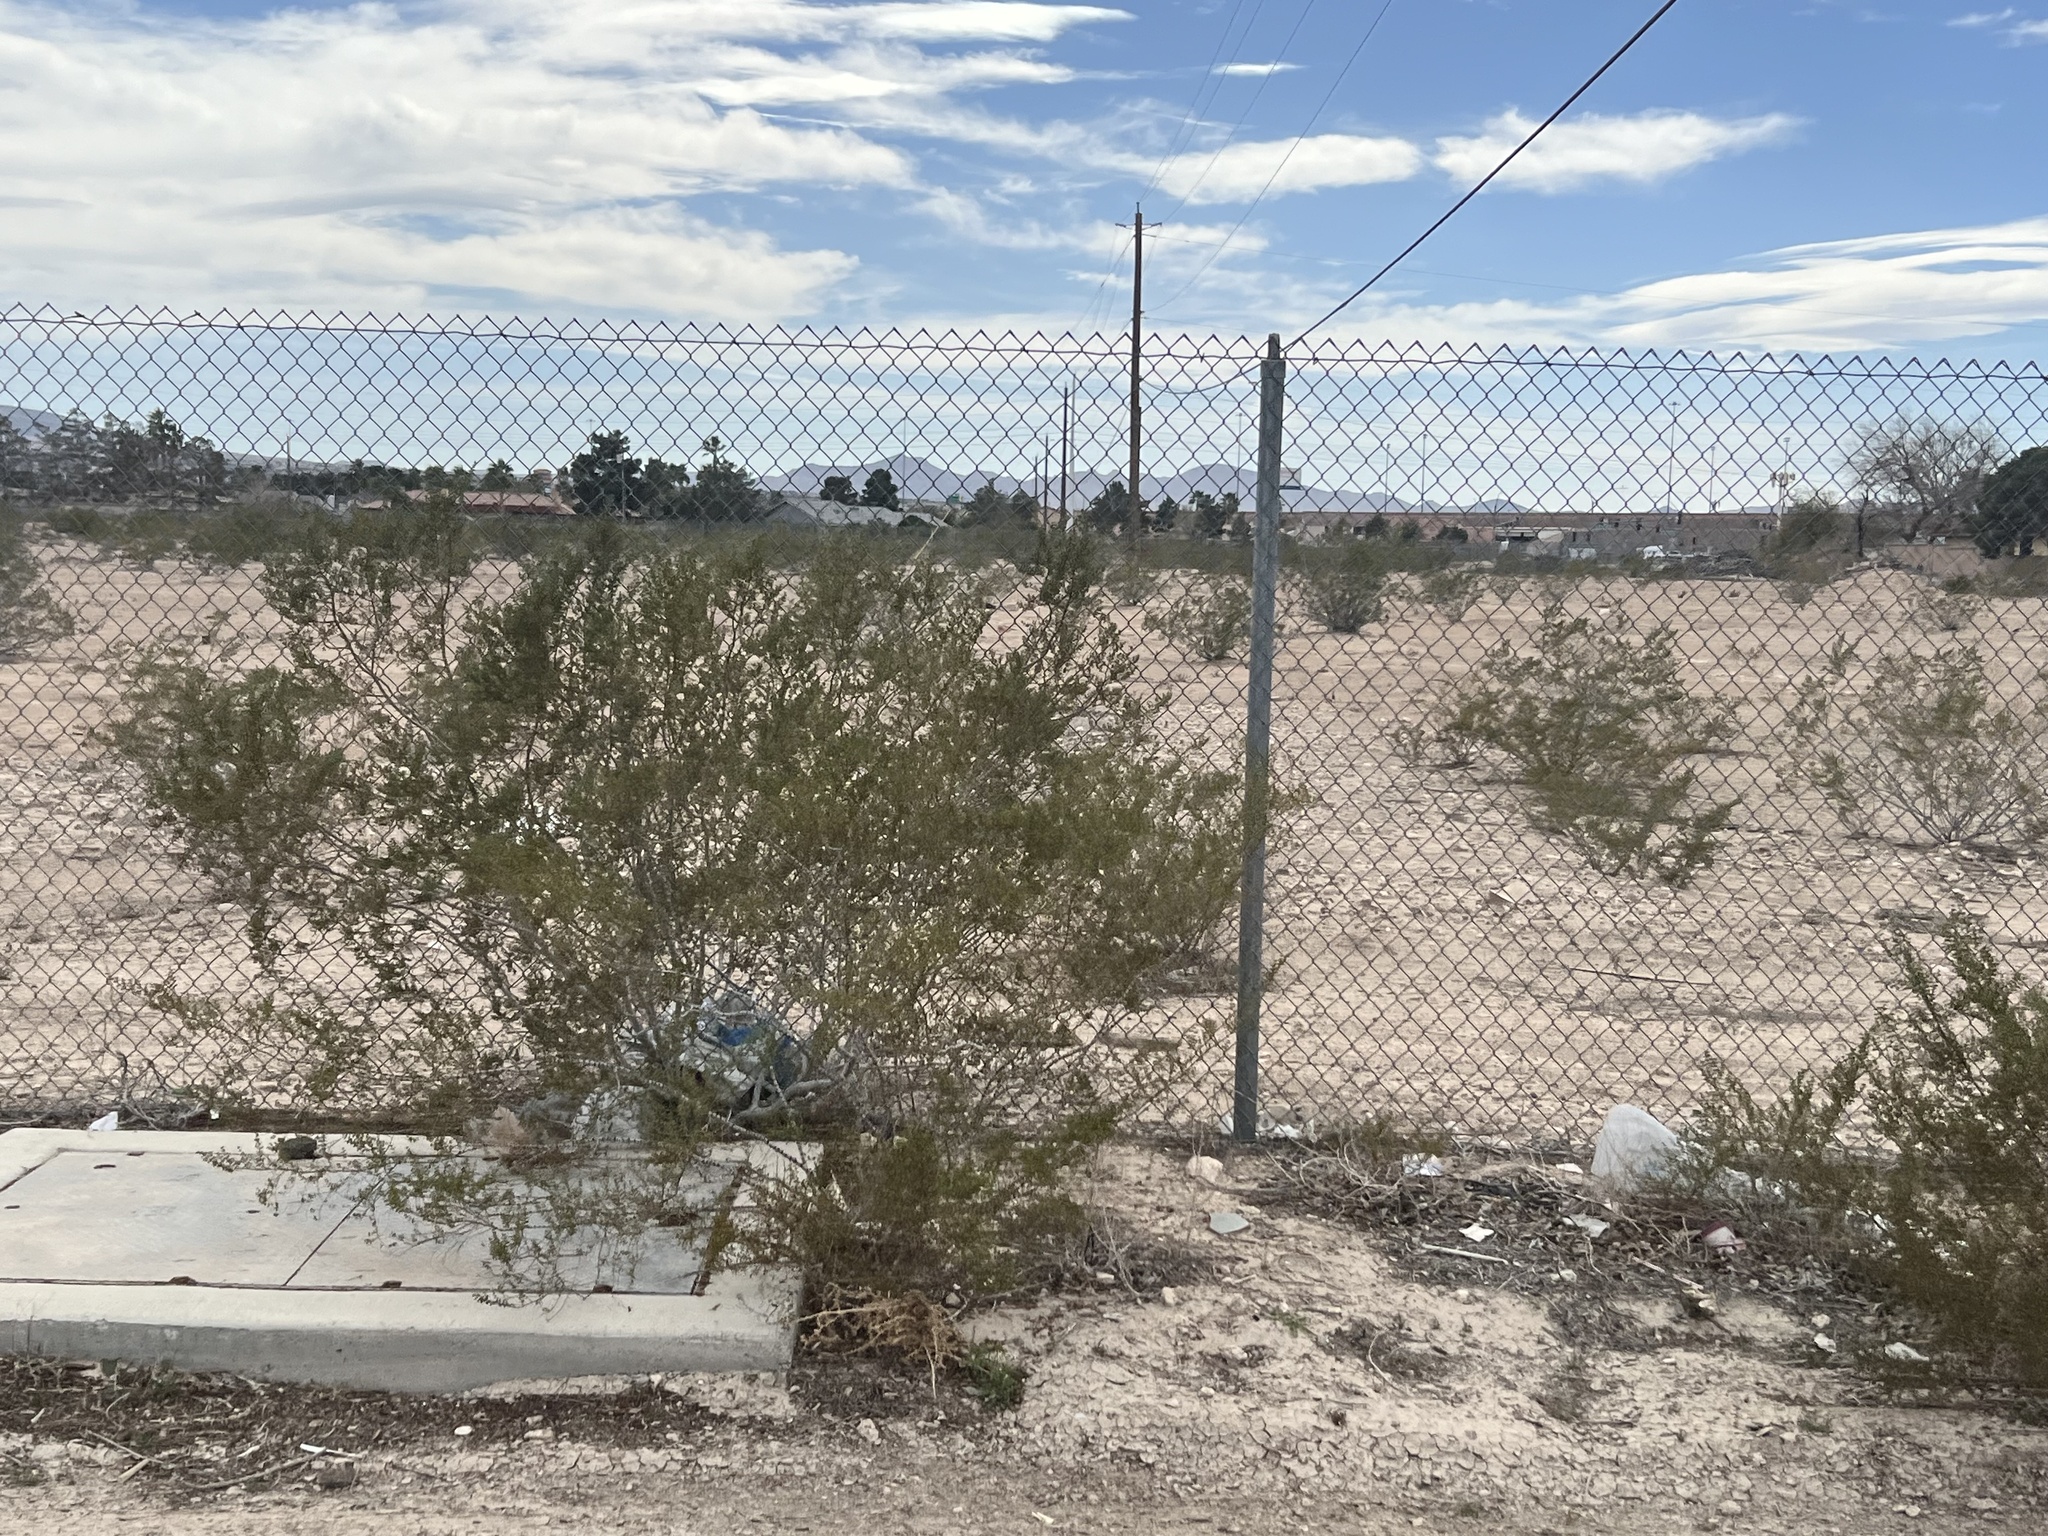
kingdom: Plantae
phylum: Tracheophyta
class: Magnoliopsida
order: Zygophyllales
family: Zygophyllaceae
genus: Larrea
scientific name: Larrea tridentata
